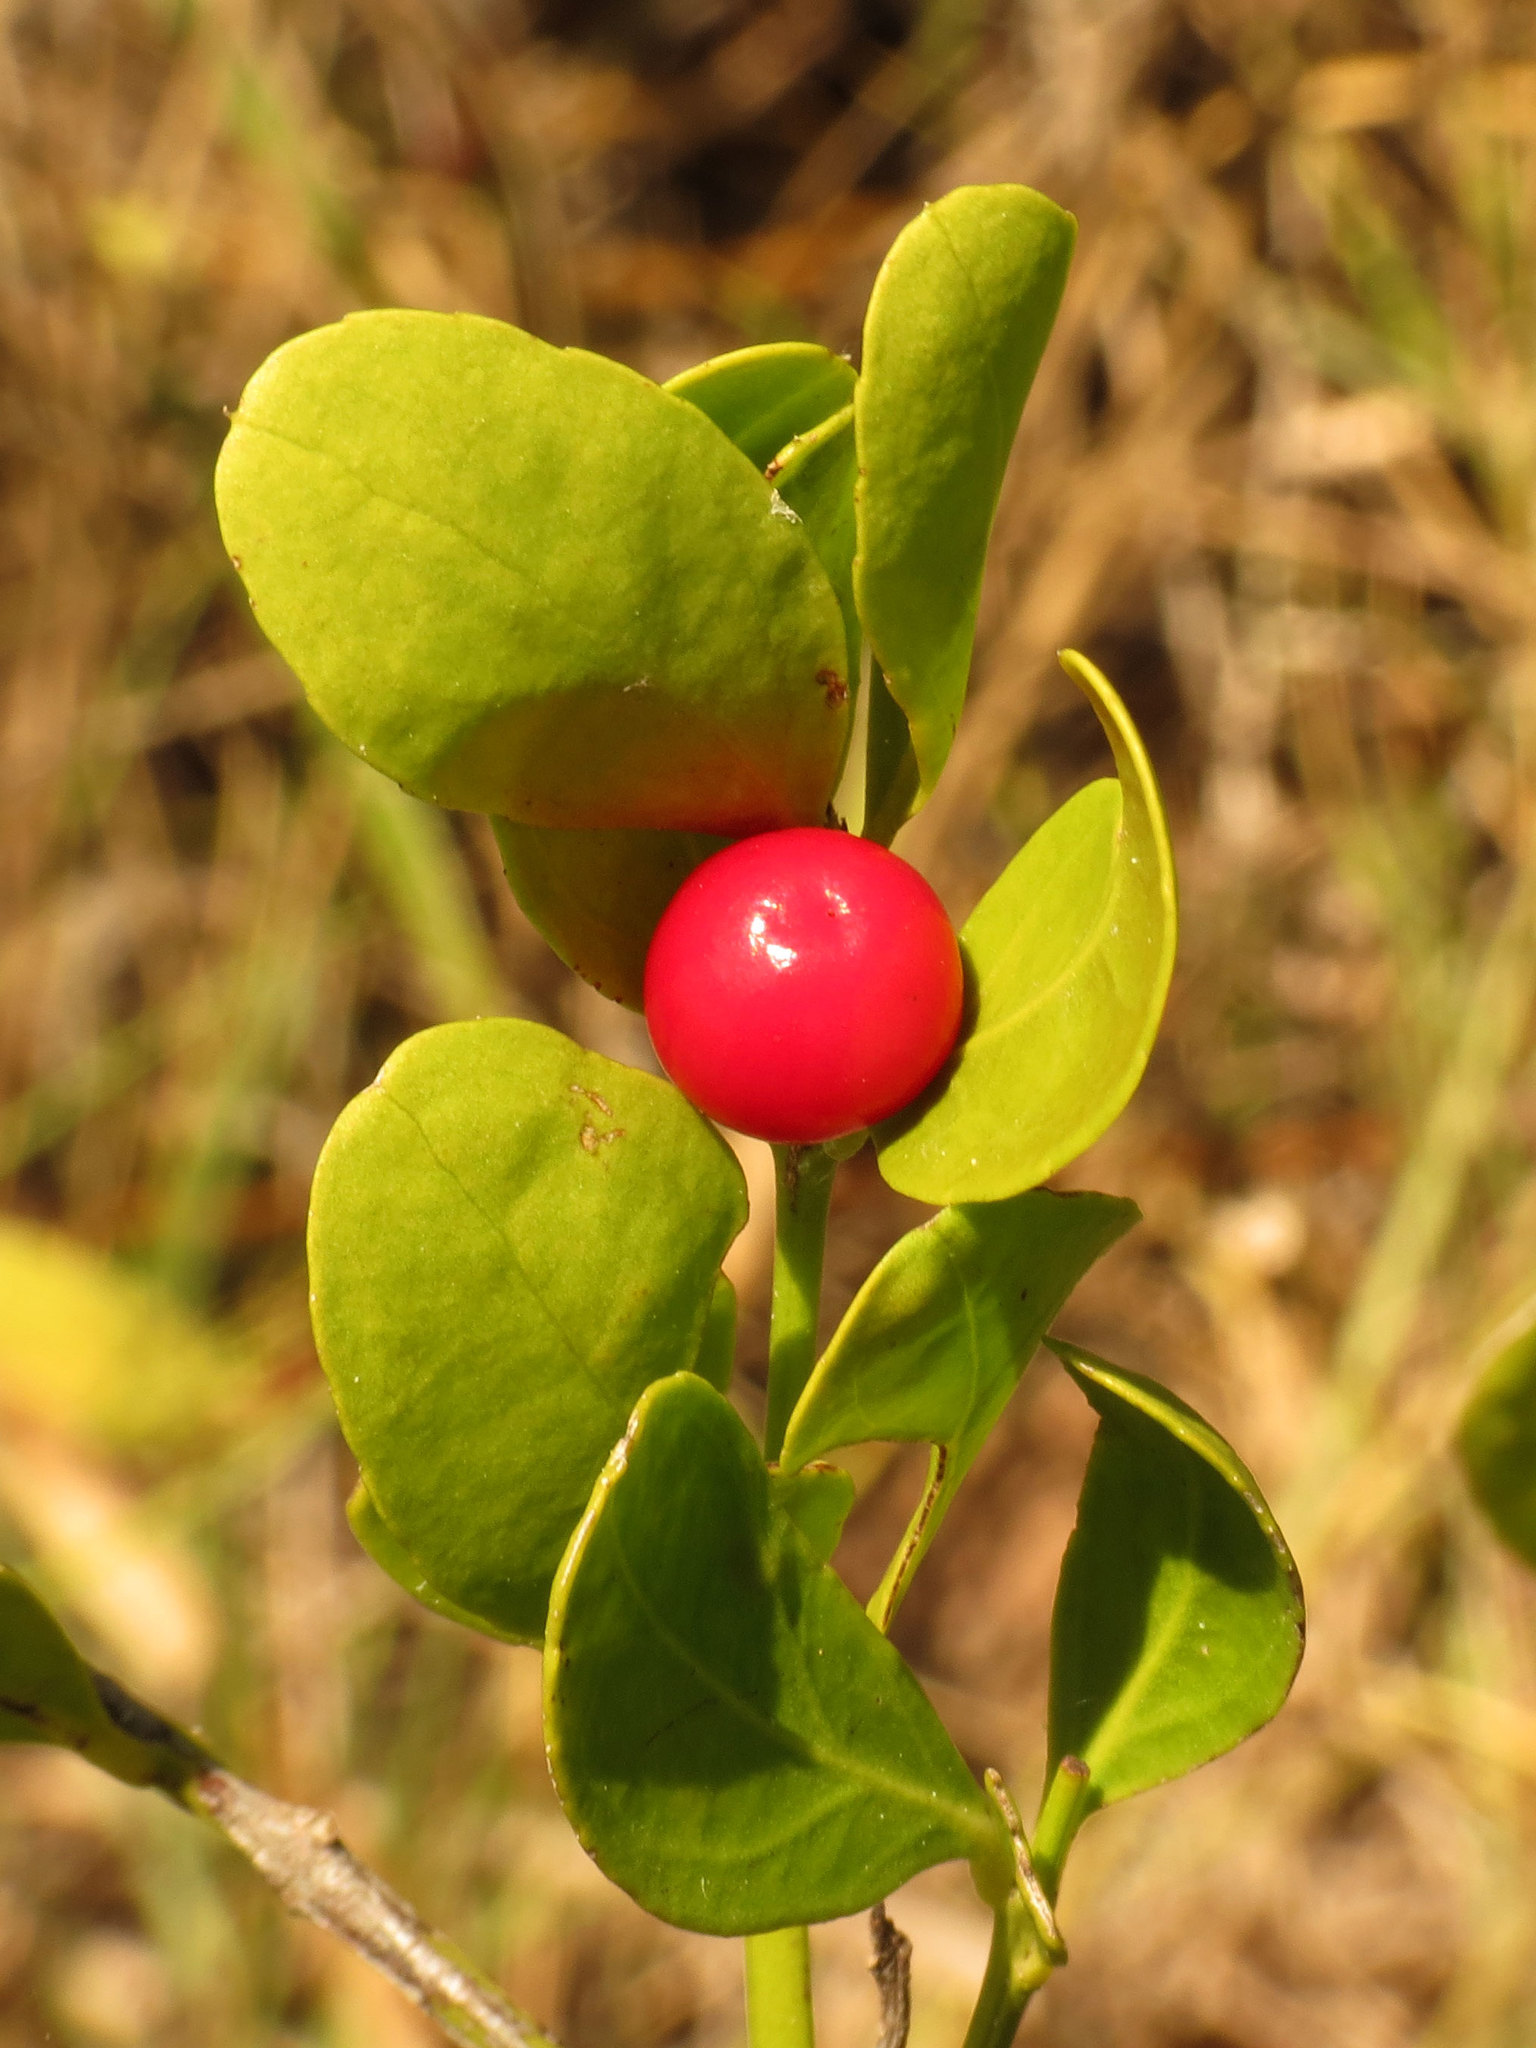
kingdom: Plantae
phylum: Tracheophyta
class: Magnoliopsida
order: Celastrales
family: Celastraceae
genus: Crossopetalum
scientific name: Crossopetalum rhacoma
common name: Maidenberry
